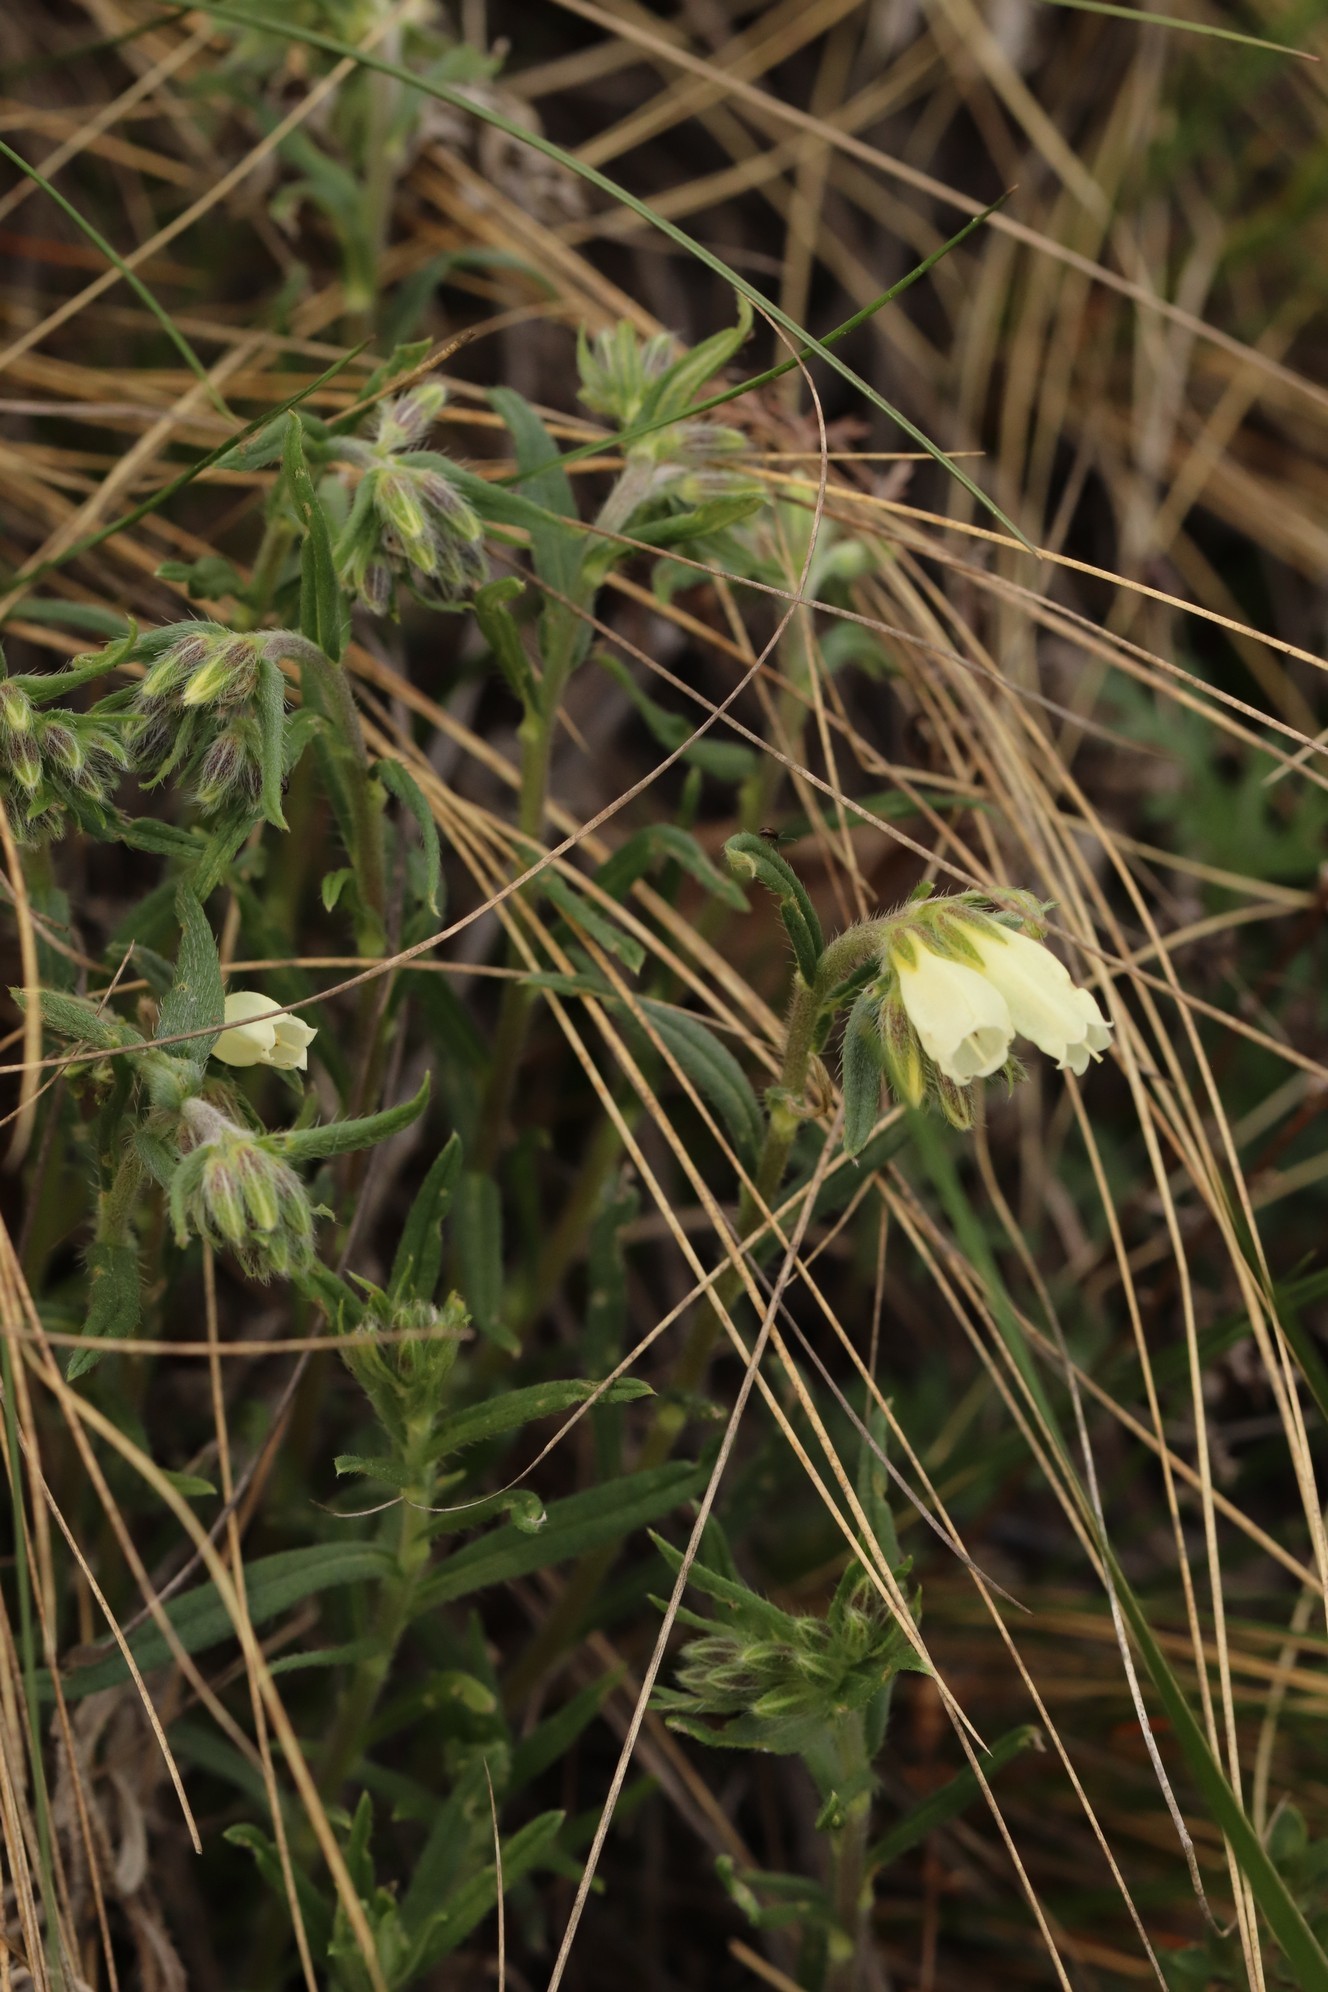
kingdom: Plantae
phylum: Tracheophyta
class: Magnoliopsida
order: Boraginales
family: Boraginaceae
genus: Onosma
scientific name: Onosma simplicissima
